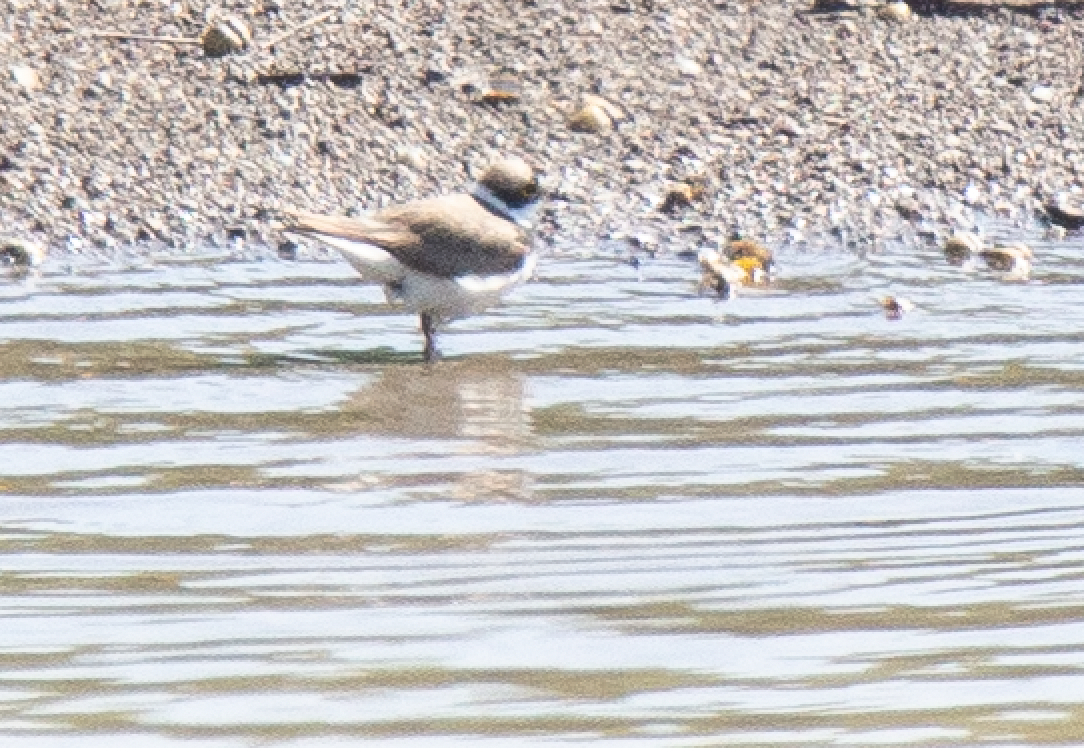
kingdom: Animalia
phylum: Chordata
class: Aves
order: Charadriiformes
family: Charadriidae
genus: Charadrius
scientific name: Charadrius dubius
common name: Little ringed plover
